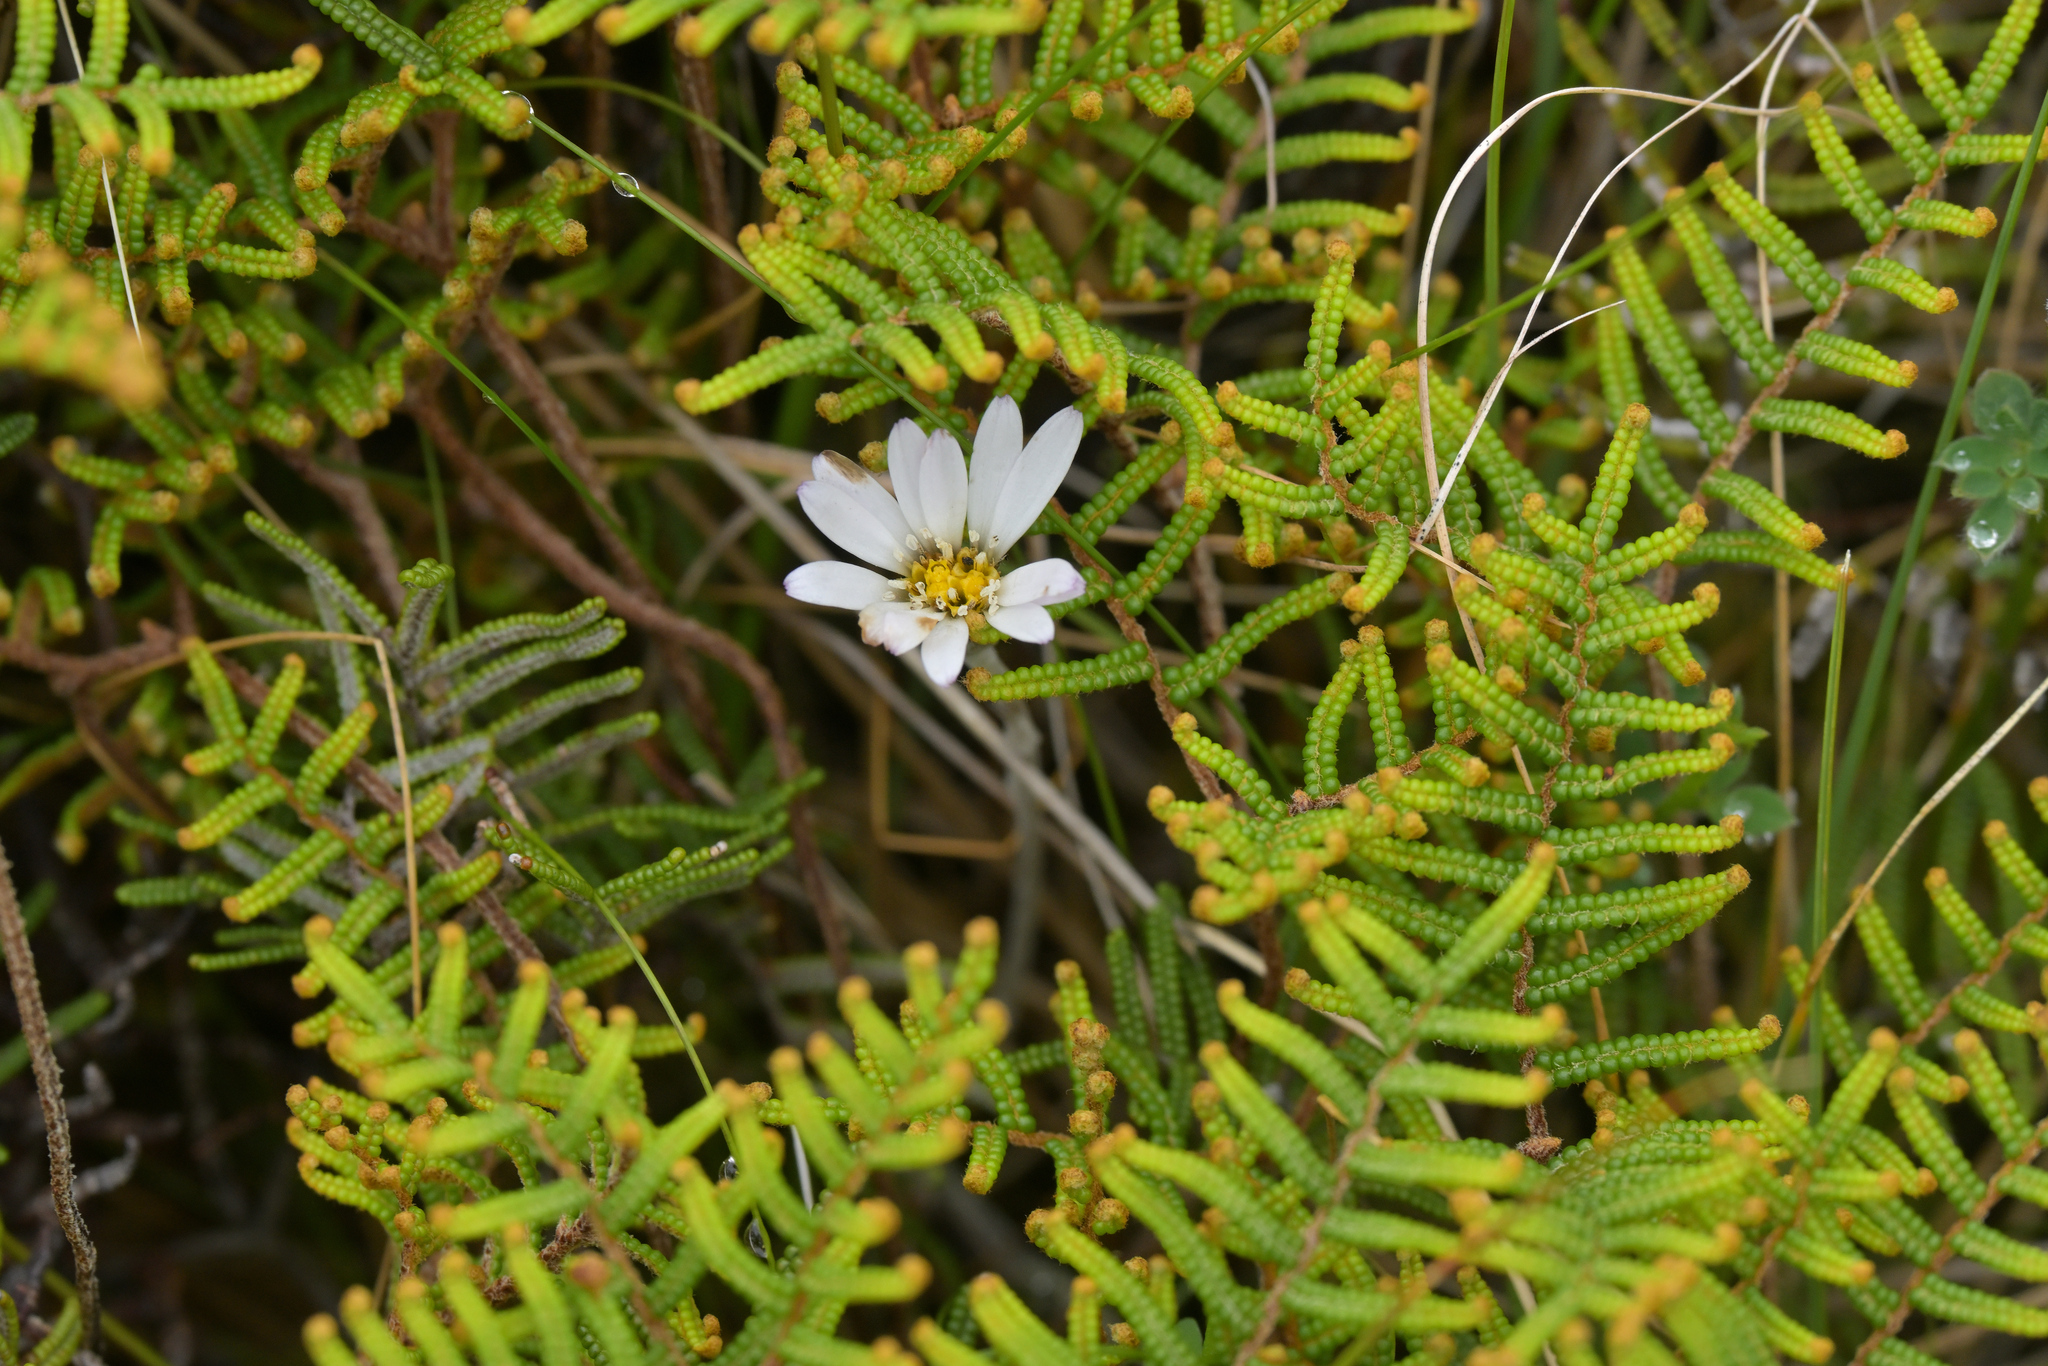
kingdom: Plantae
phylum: Tracheophyta
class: Magnoliopsida
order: Asterales
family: Asteraceae
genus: Celmisia
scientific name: Celmisia gracilenta
